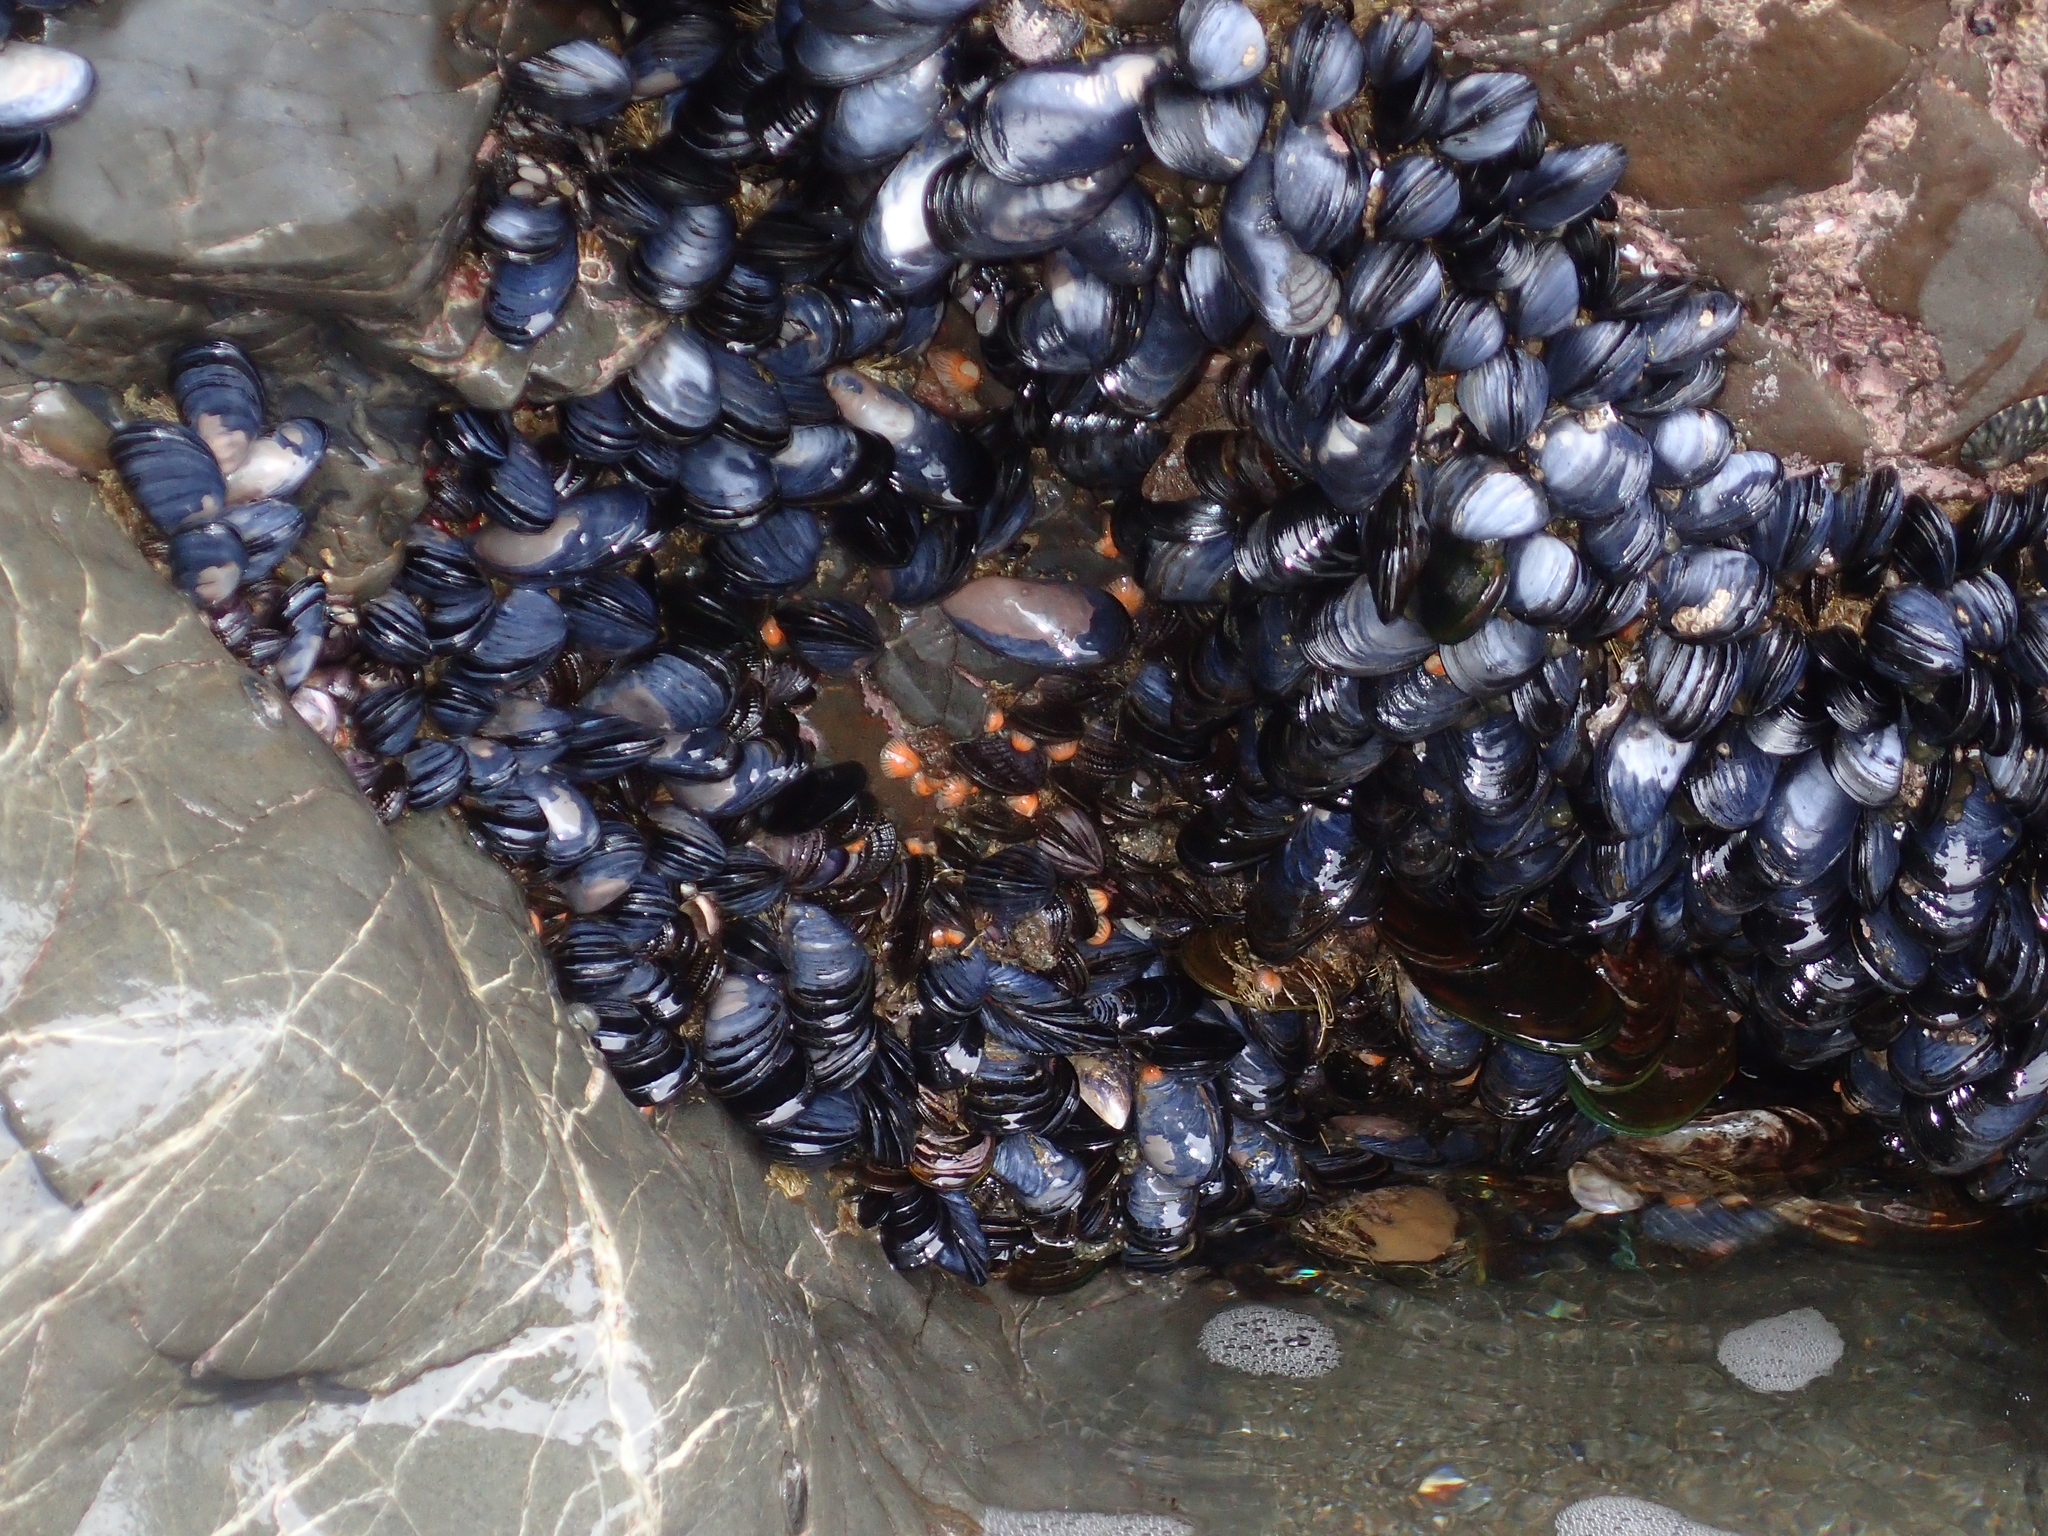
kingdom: Animalia
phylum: Mollusca
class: Bivalvia
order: Mytilida
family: Mytilidae
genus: Mytilus
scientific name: Mytilus planulatus
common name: Australian mussel
